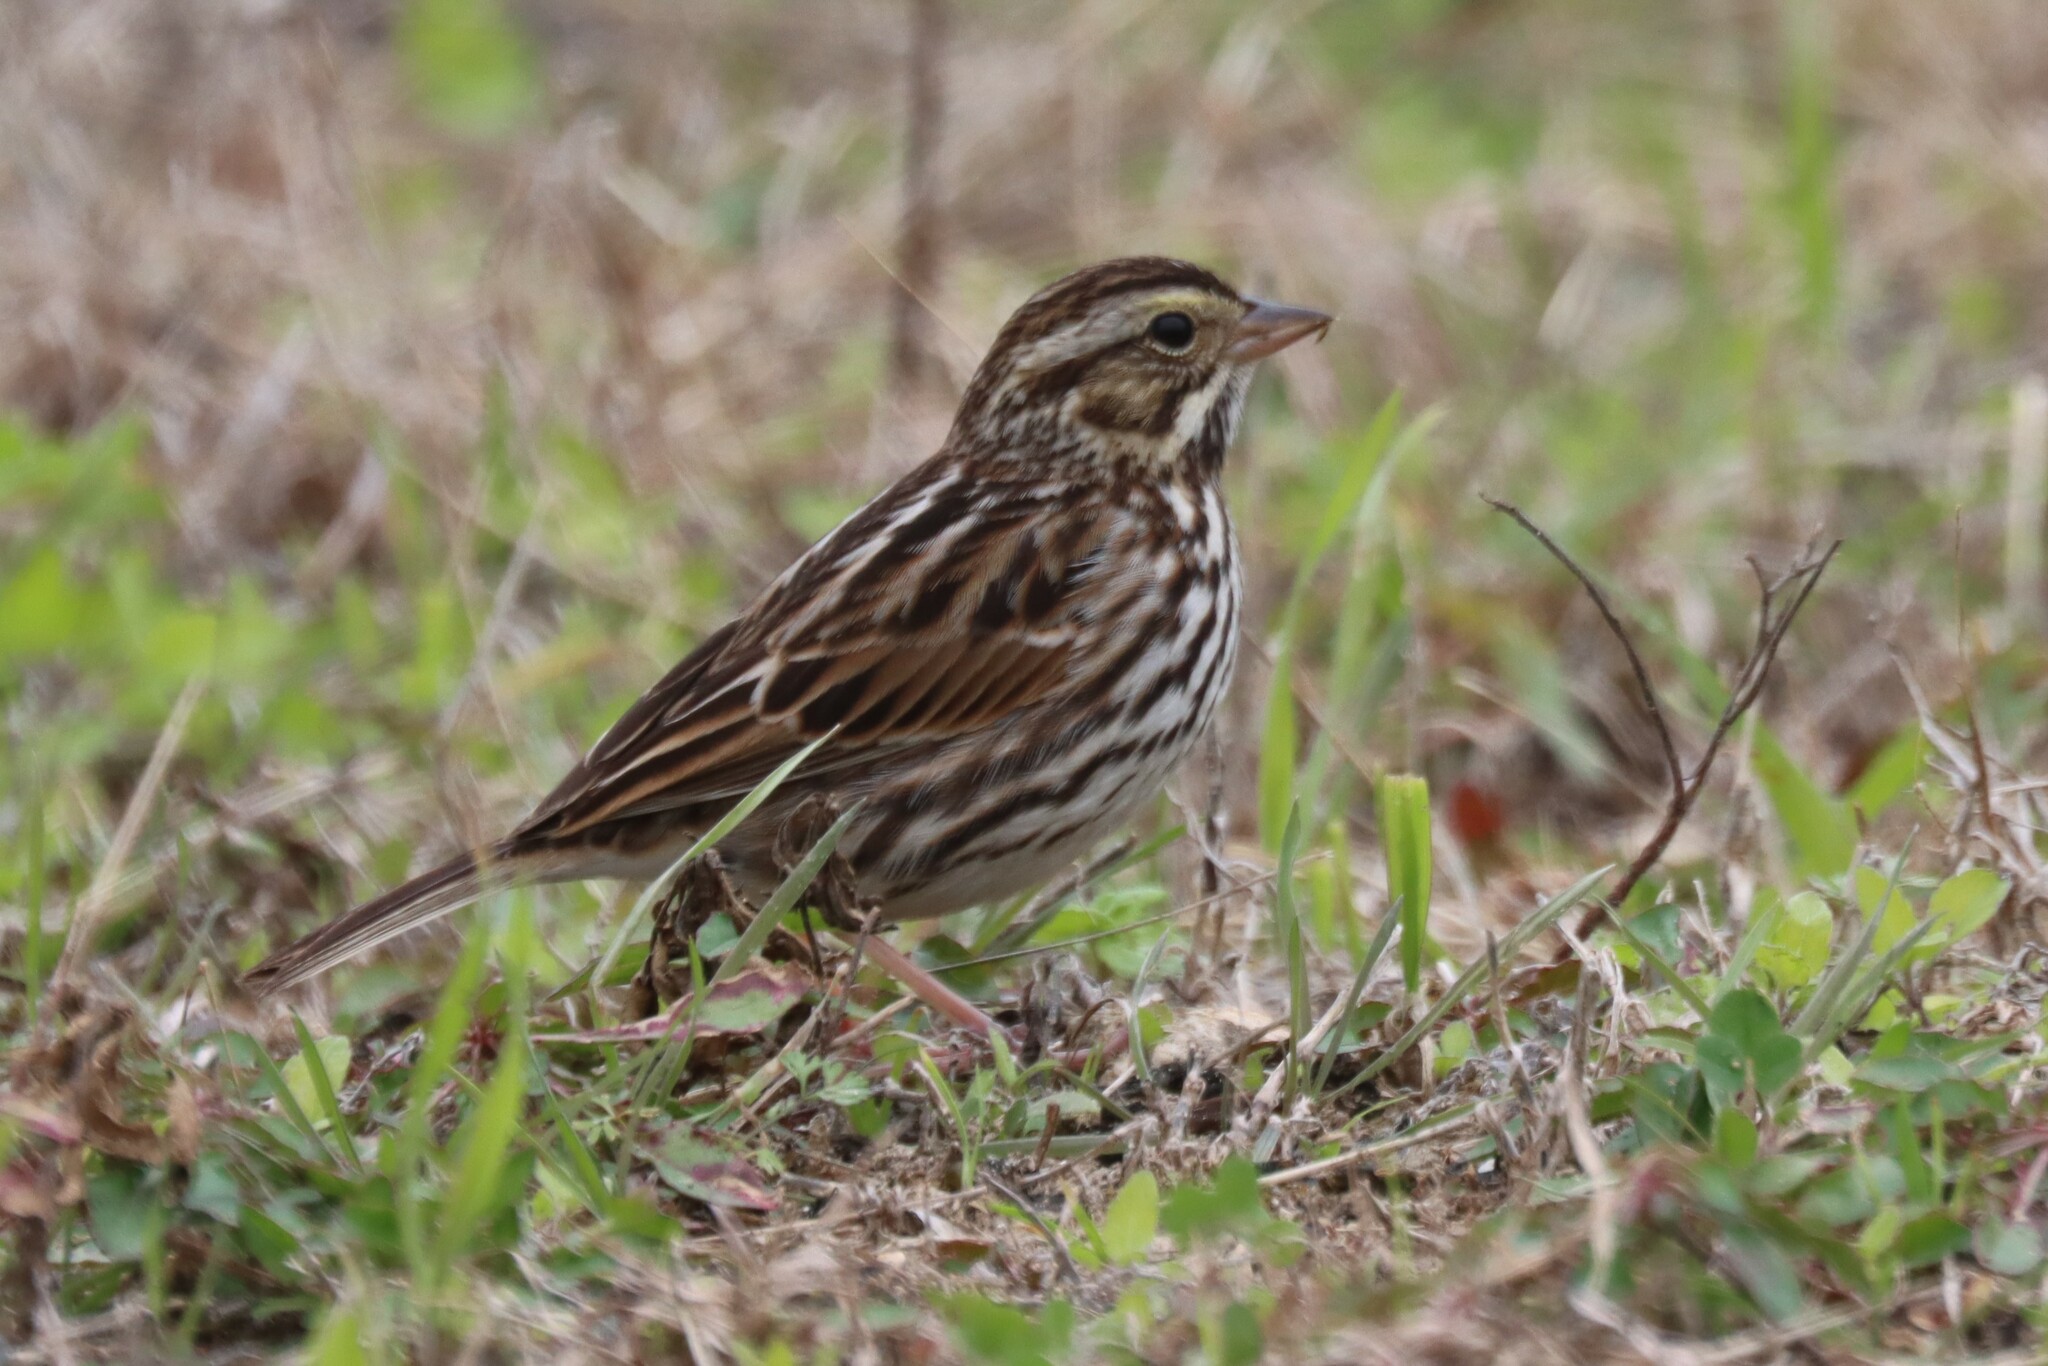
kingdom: Animalia
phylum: Chordata
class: Aves
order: Passeriformes
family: Passerellidae
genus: Passerculus
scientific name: Passerculus sandwichensis
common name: Savannah sparrow
